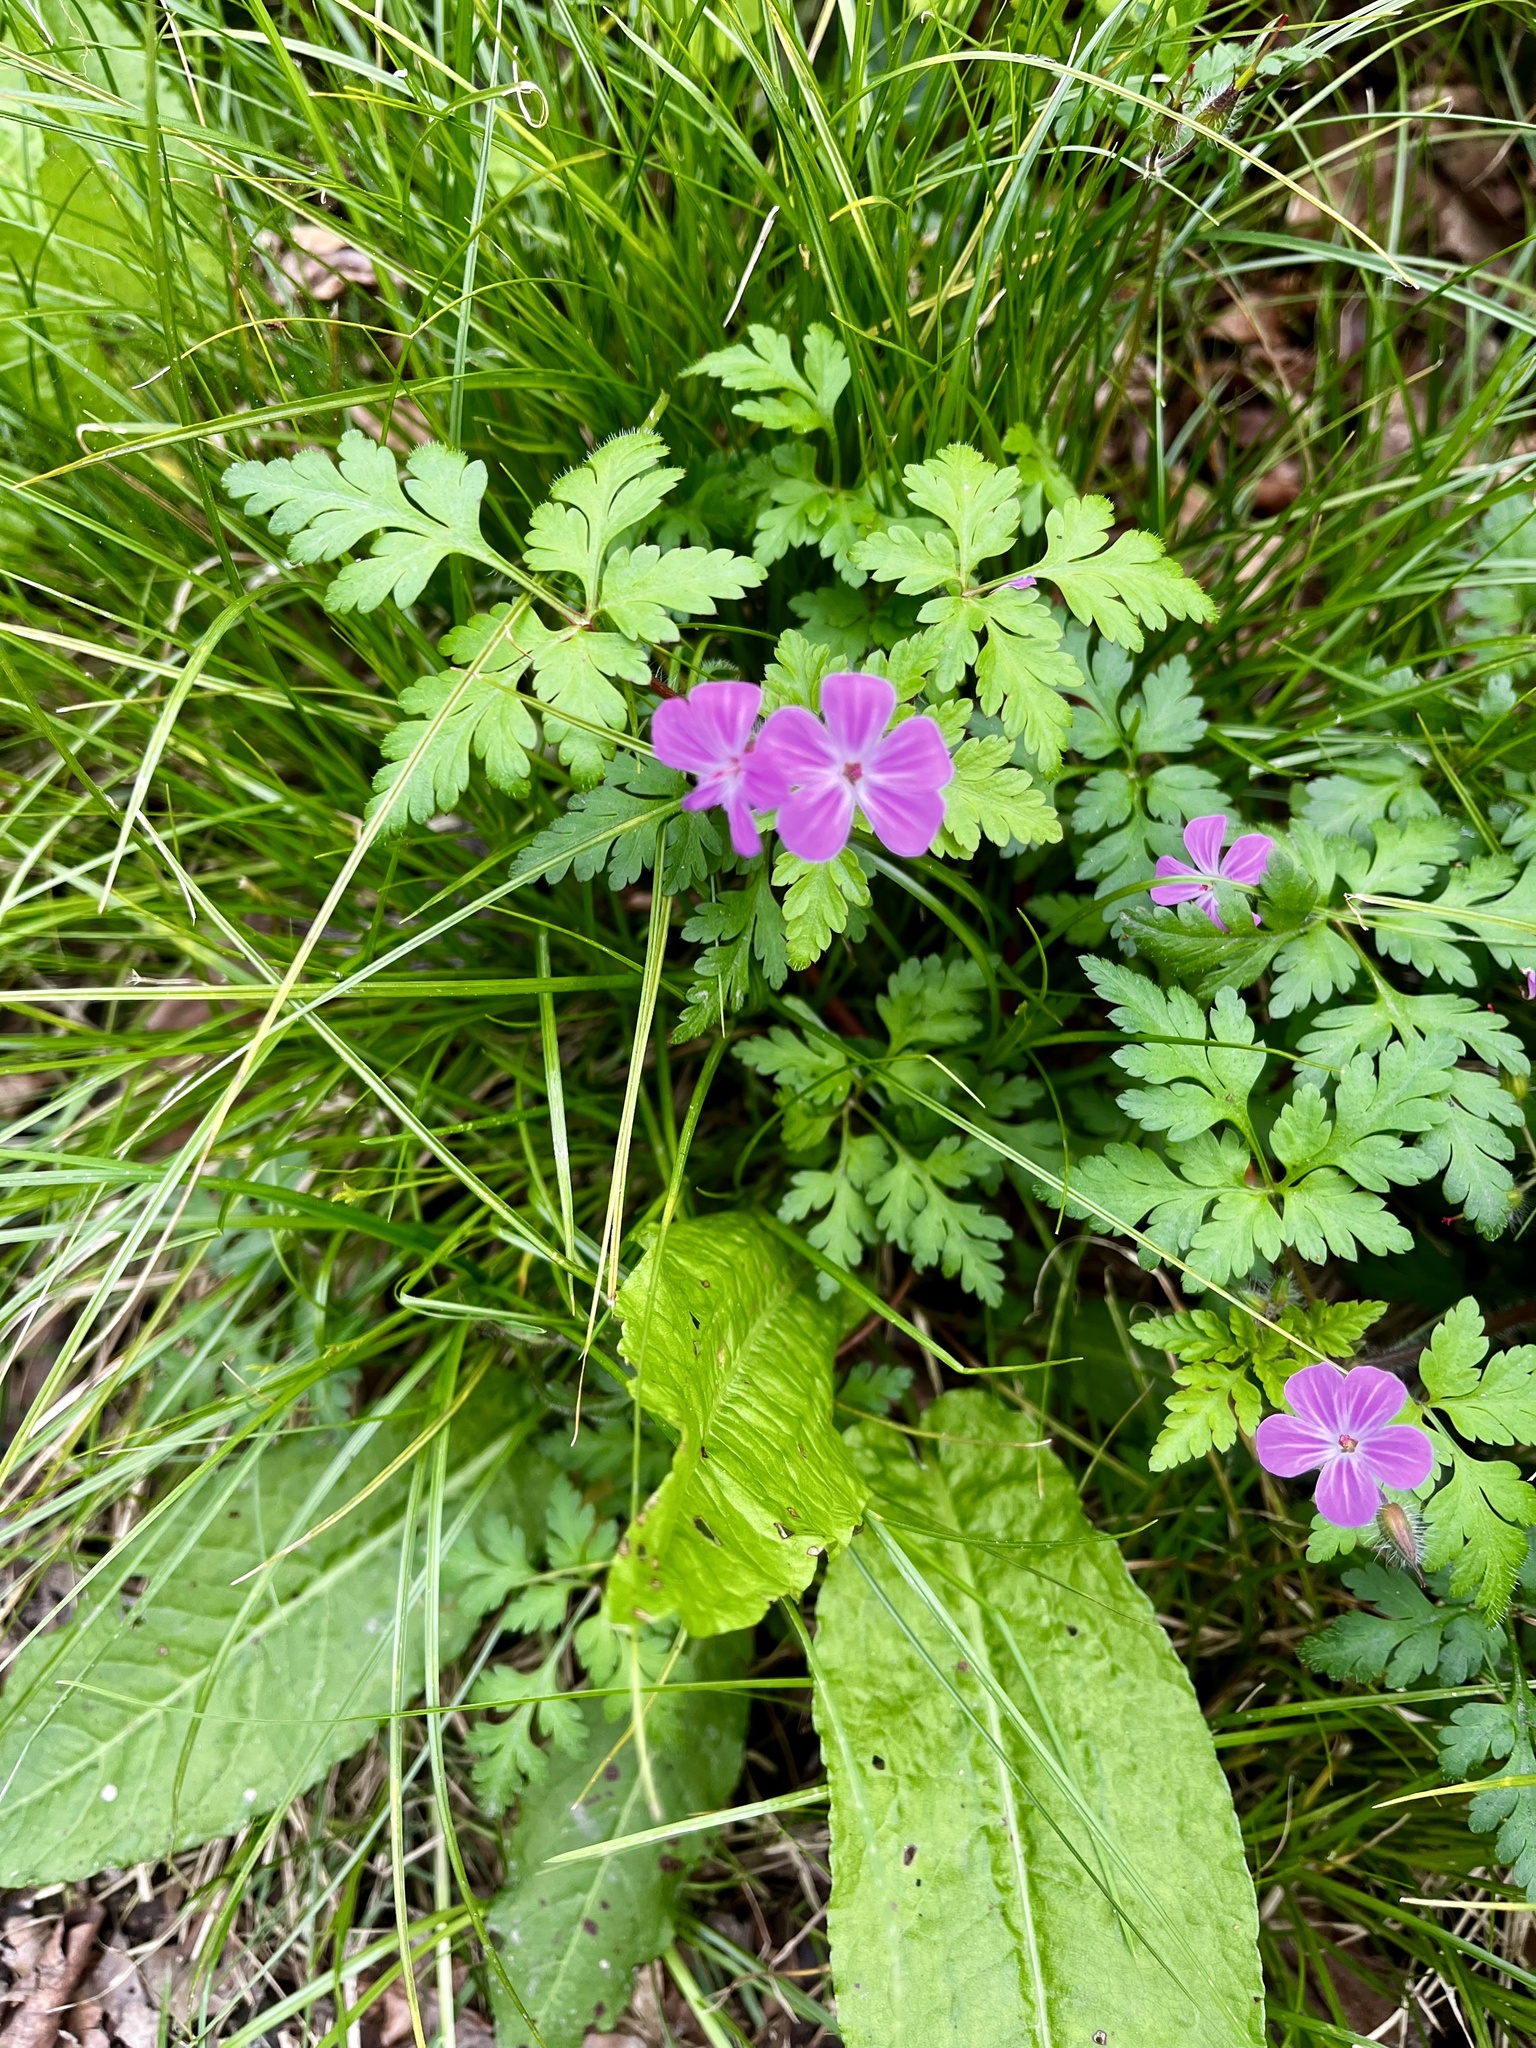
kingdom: Plantae
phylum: Tracheophyta
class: Magnoliopsida
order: Geraniales
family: Geraniaceae
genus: Geranium
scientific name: Geranium robertianum
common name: Herb-robert
